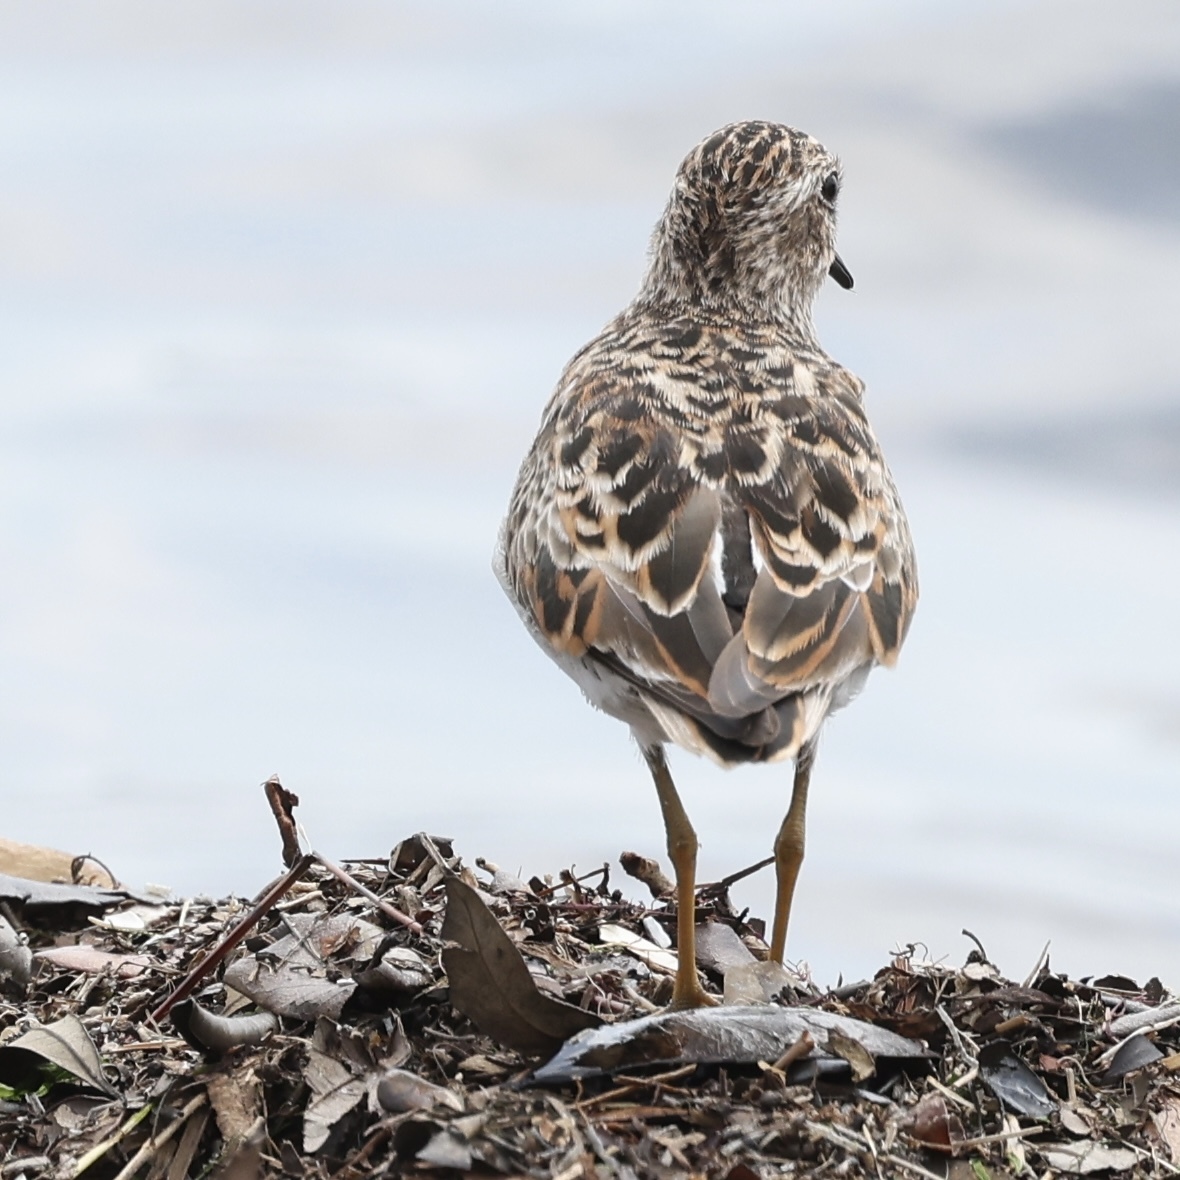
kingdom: Animalia
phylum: Chordata
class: Aves
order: Charadriiformes
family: Scolopacidae
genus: Calidris
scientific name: Calidris minutilla
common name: Least sandpiper
